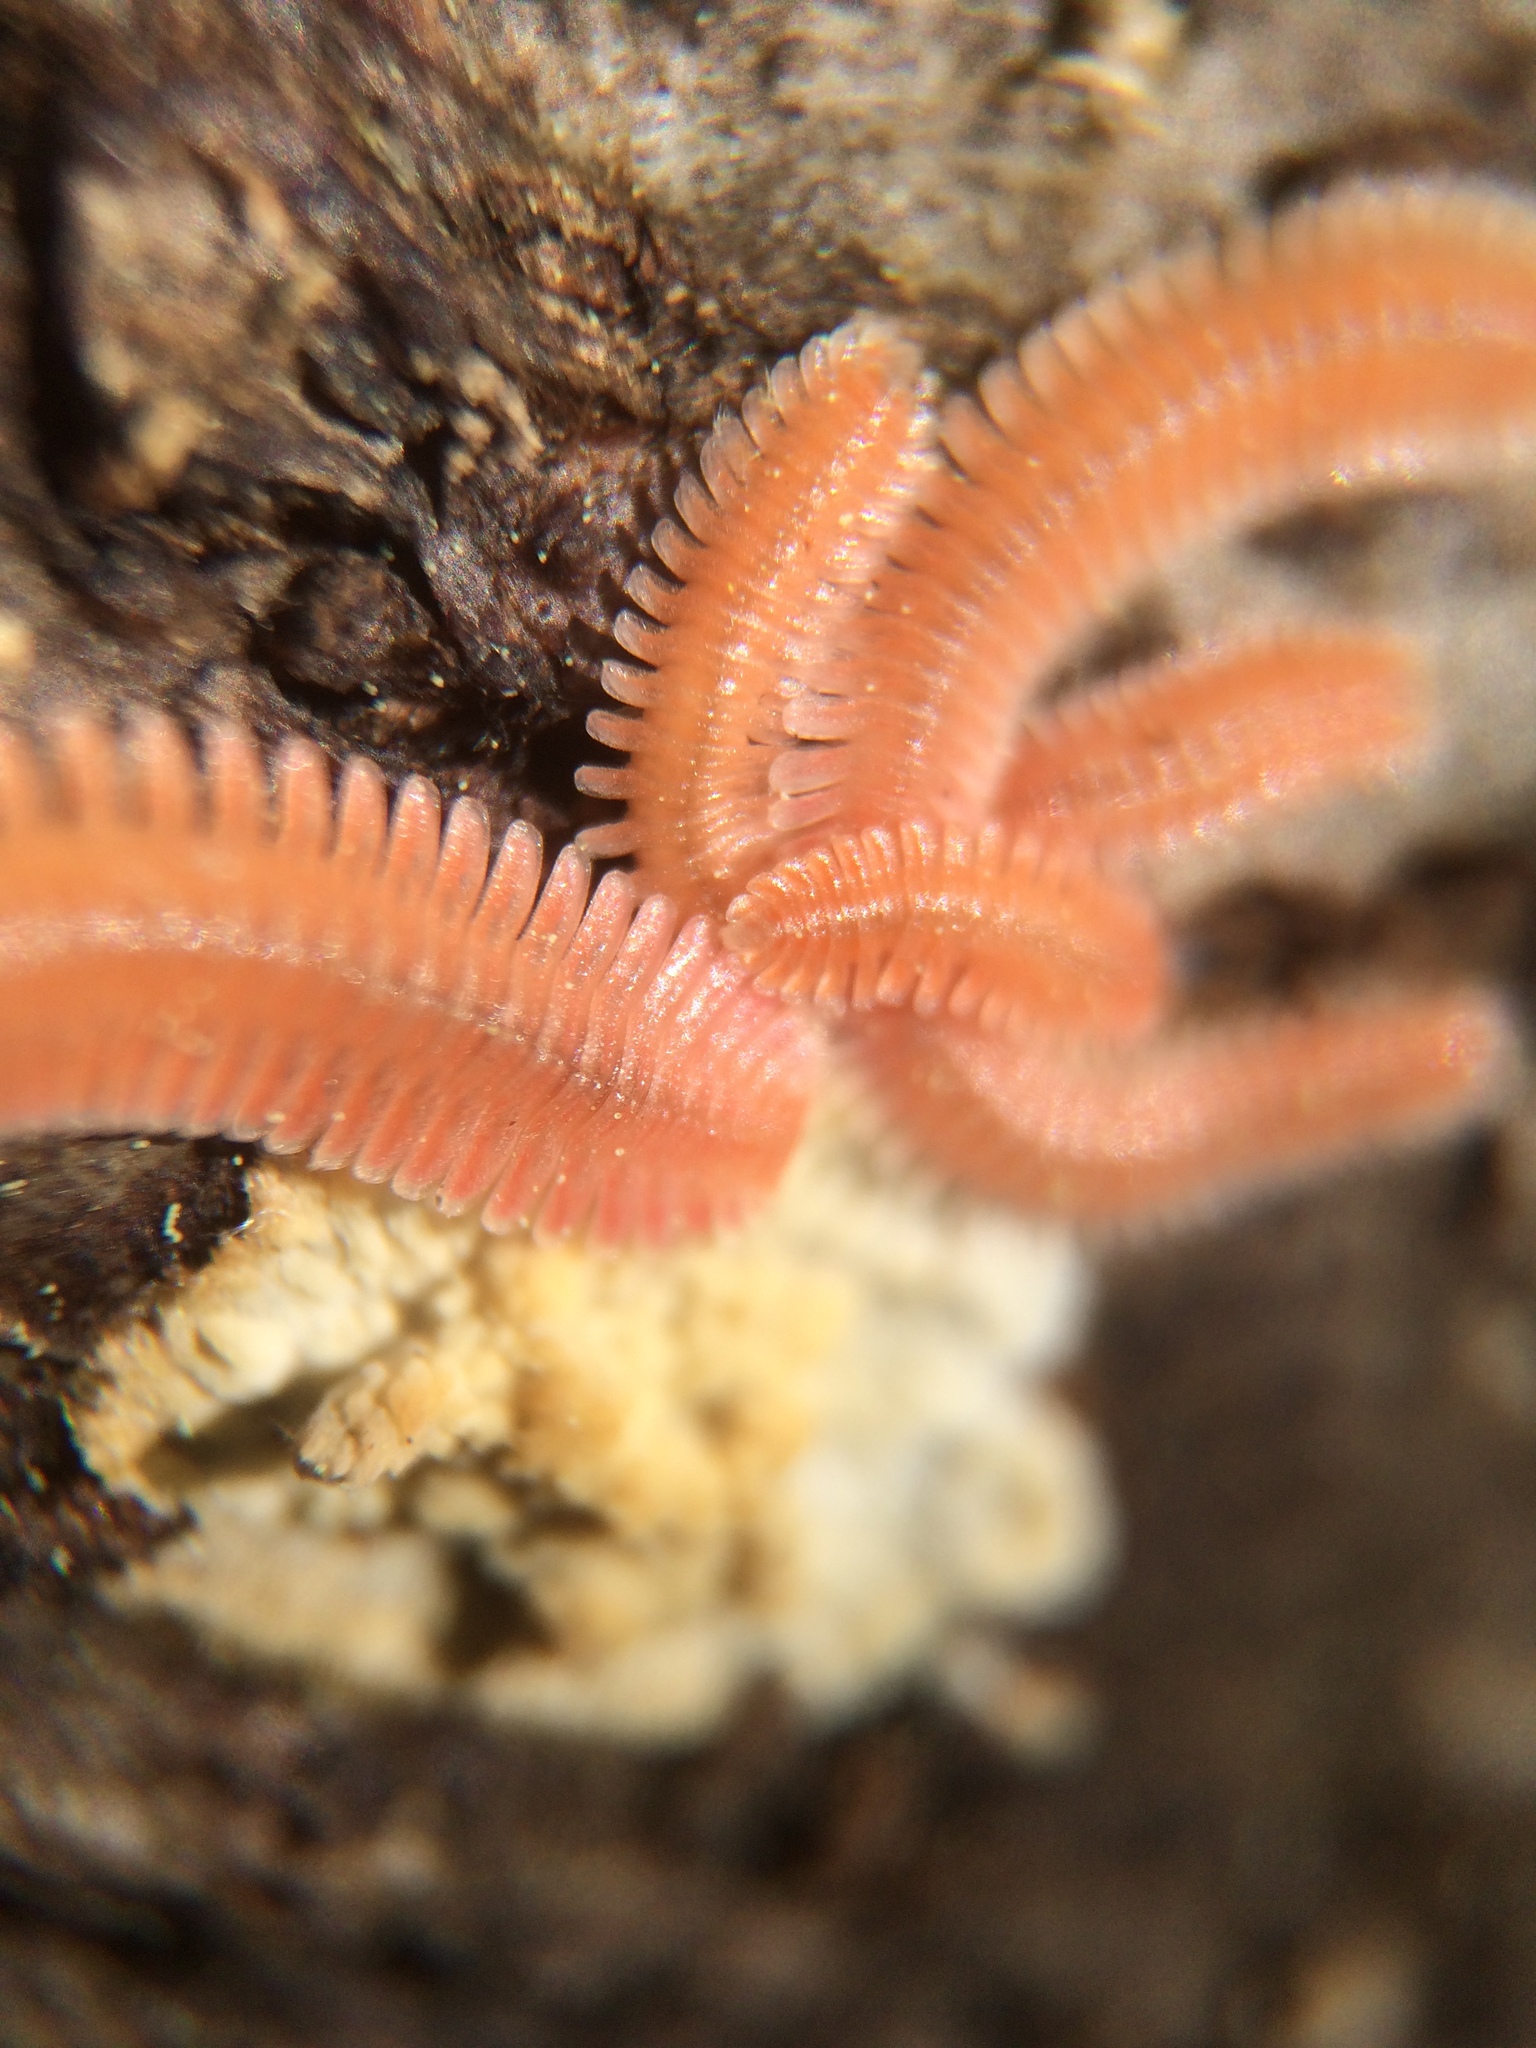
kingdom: Animalia
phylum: Arthropoda
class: Diplopoda
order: Platydesmida
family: Andrognathidae
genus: Brachycybe
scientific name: Brachycybe lecontii
